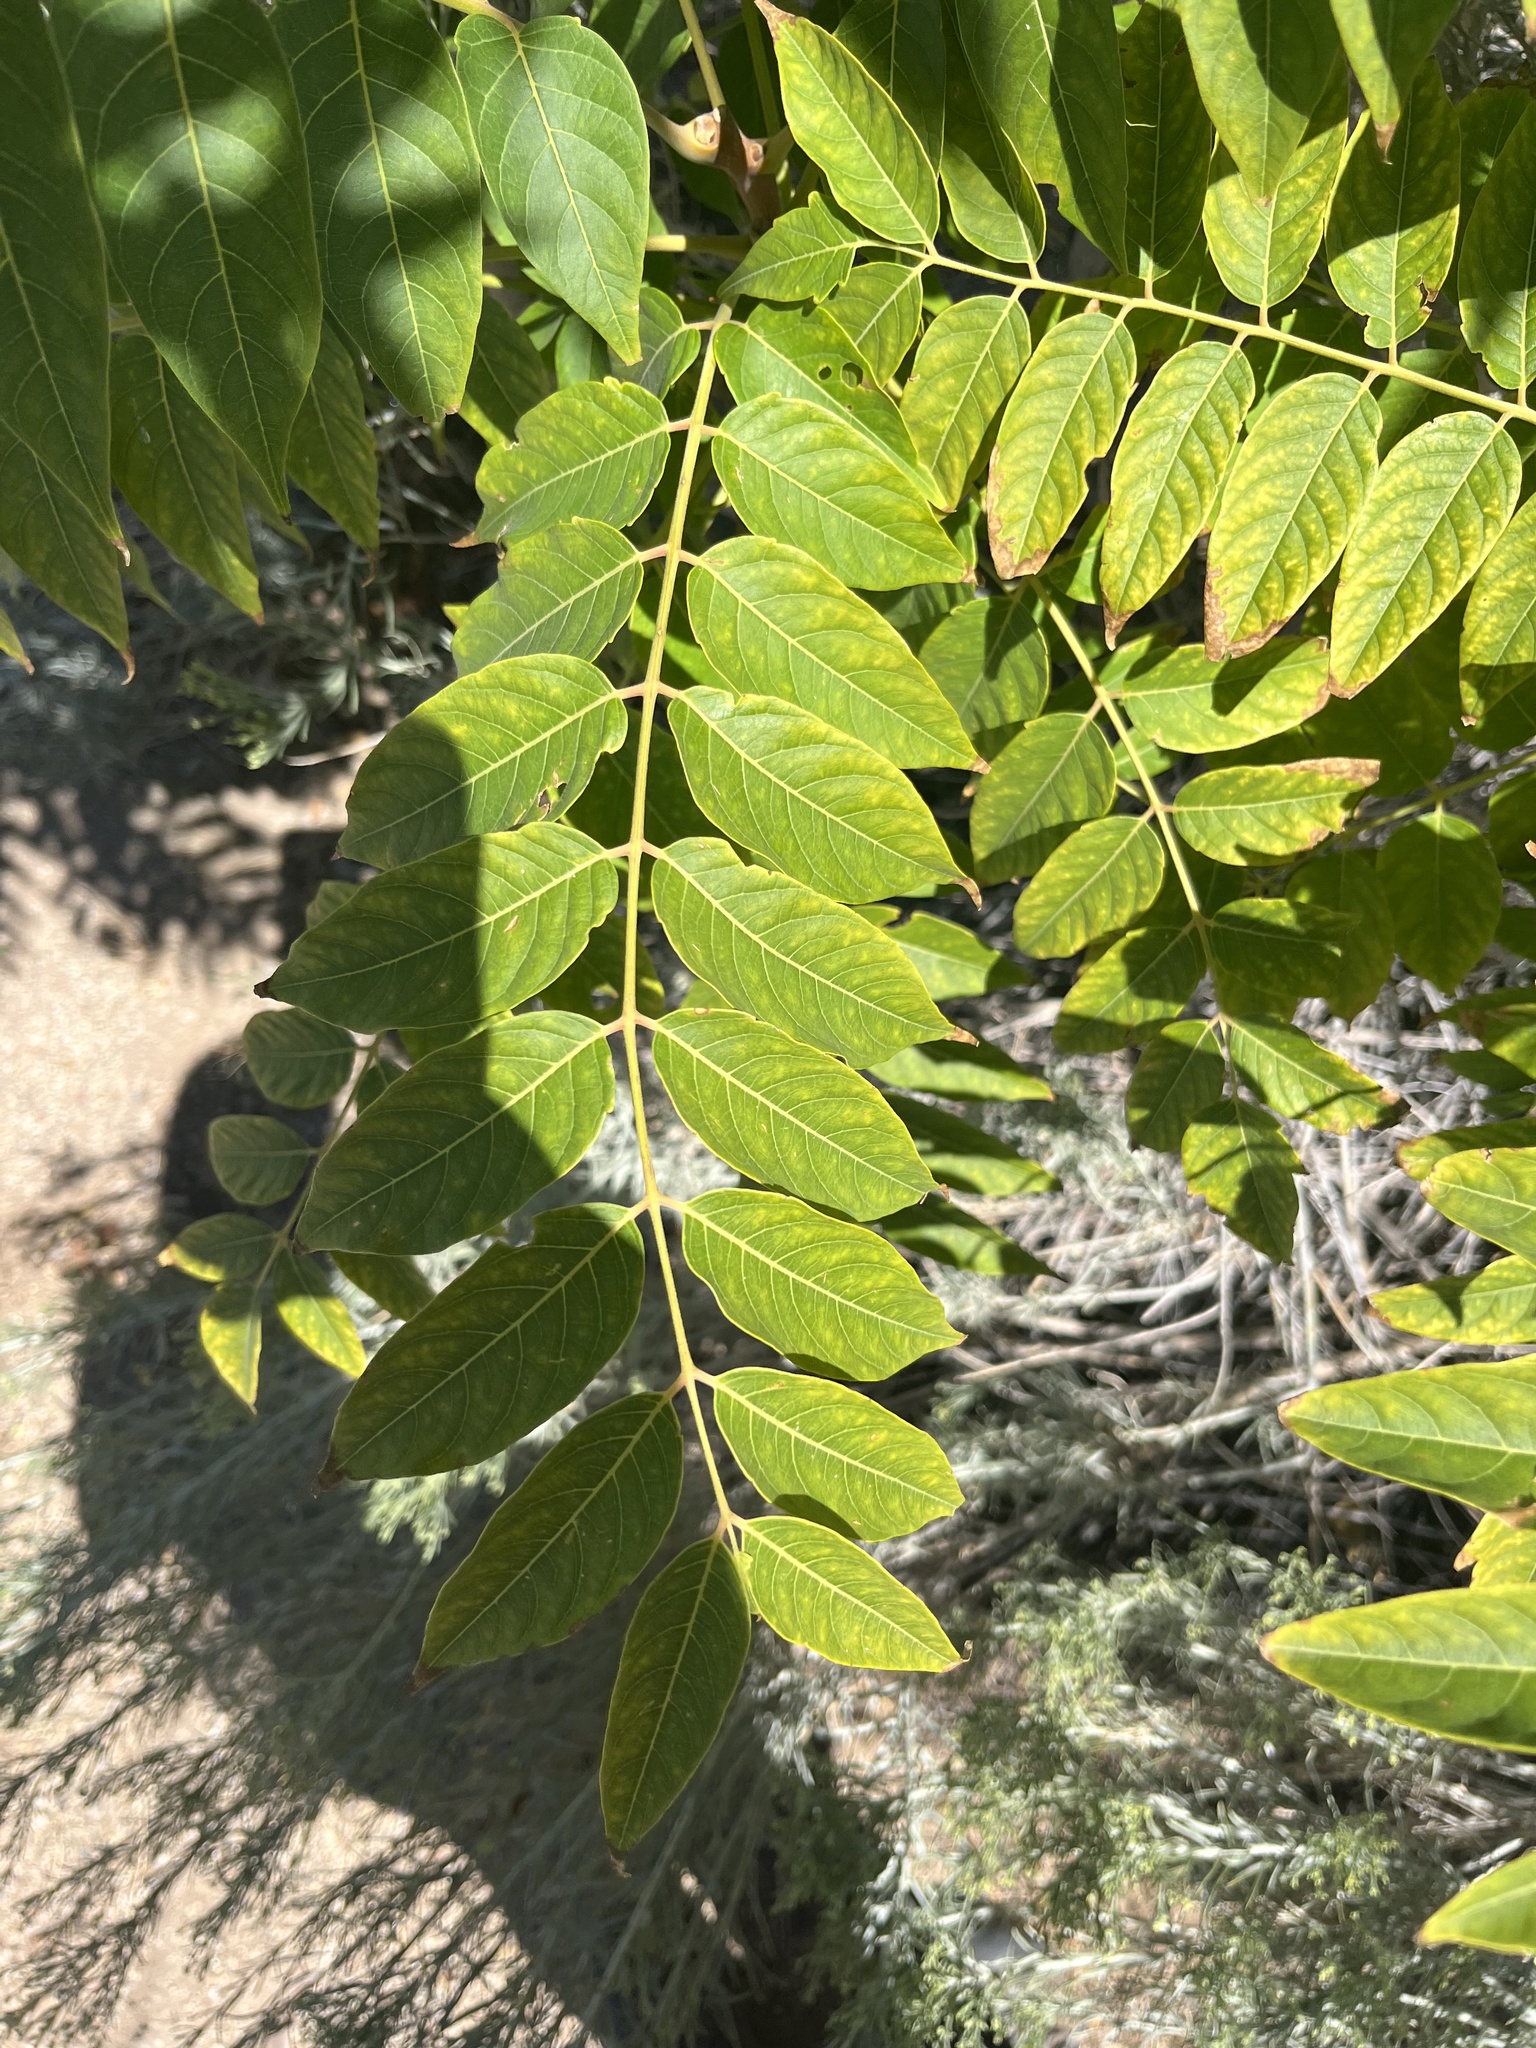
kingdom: Plantae
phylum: Tracheophyta
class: Magnoliopsida
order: Sapindales
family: Simaroubaceae
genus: Ailanthus
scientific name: Ailanthus altissima
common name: Tree-of-heaven
